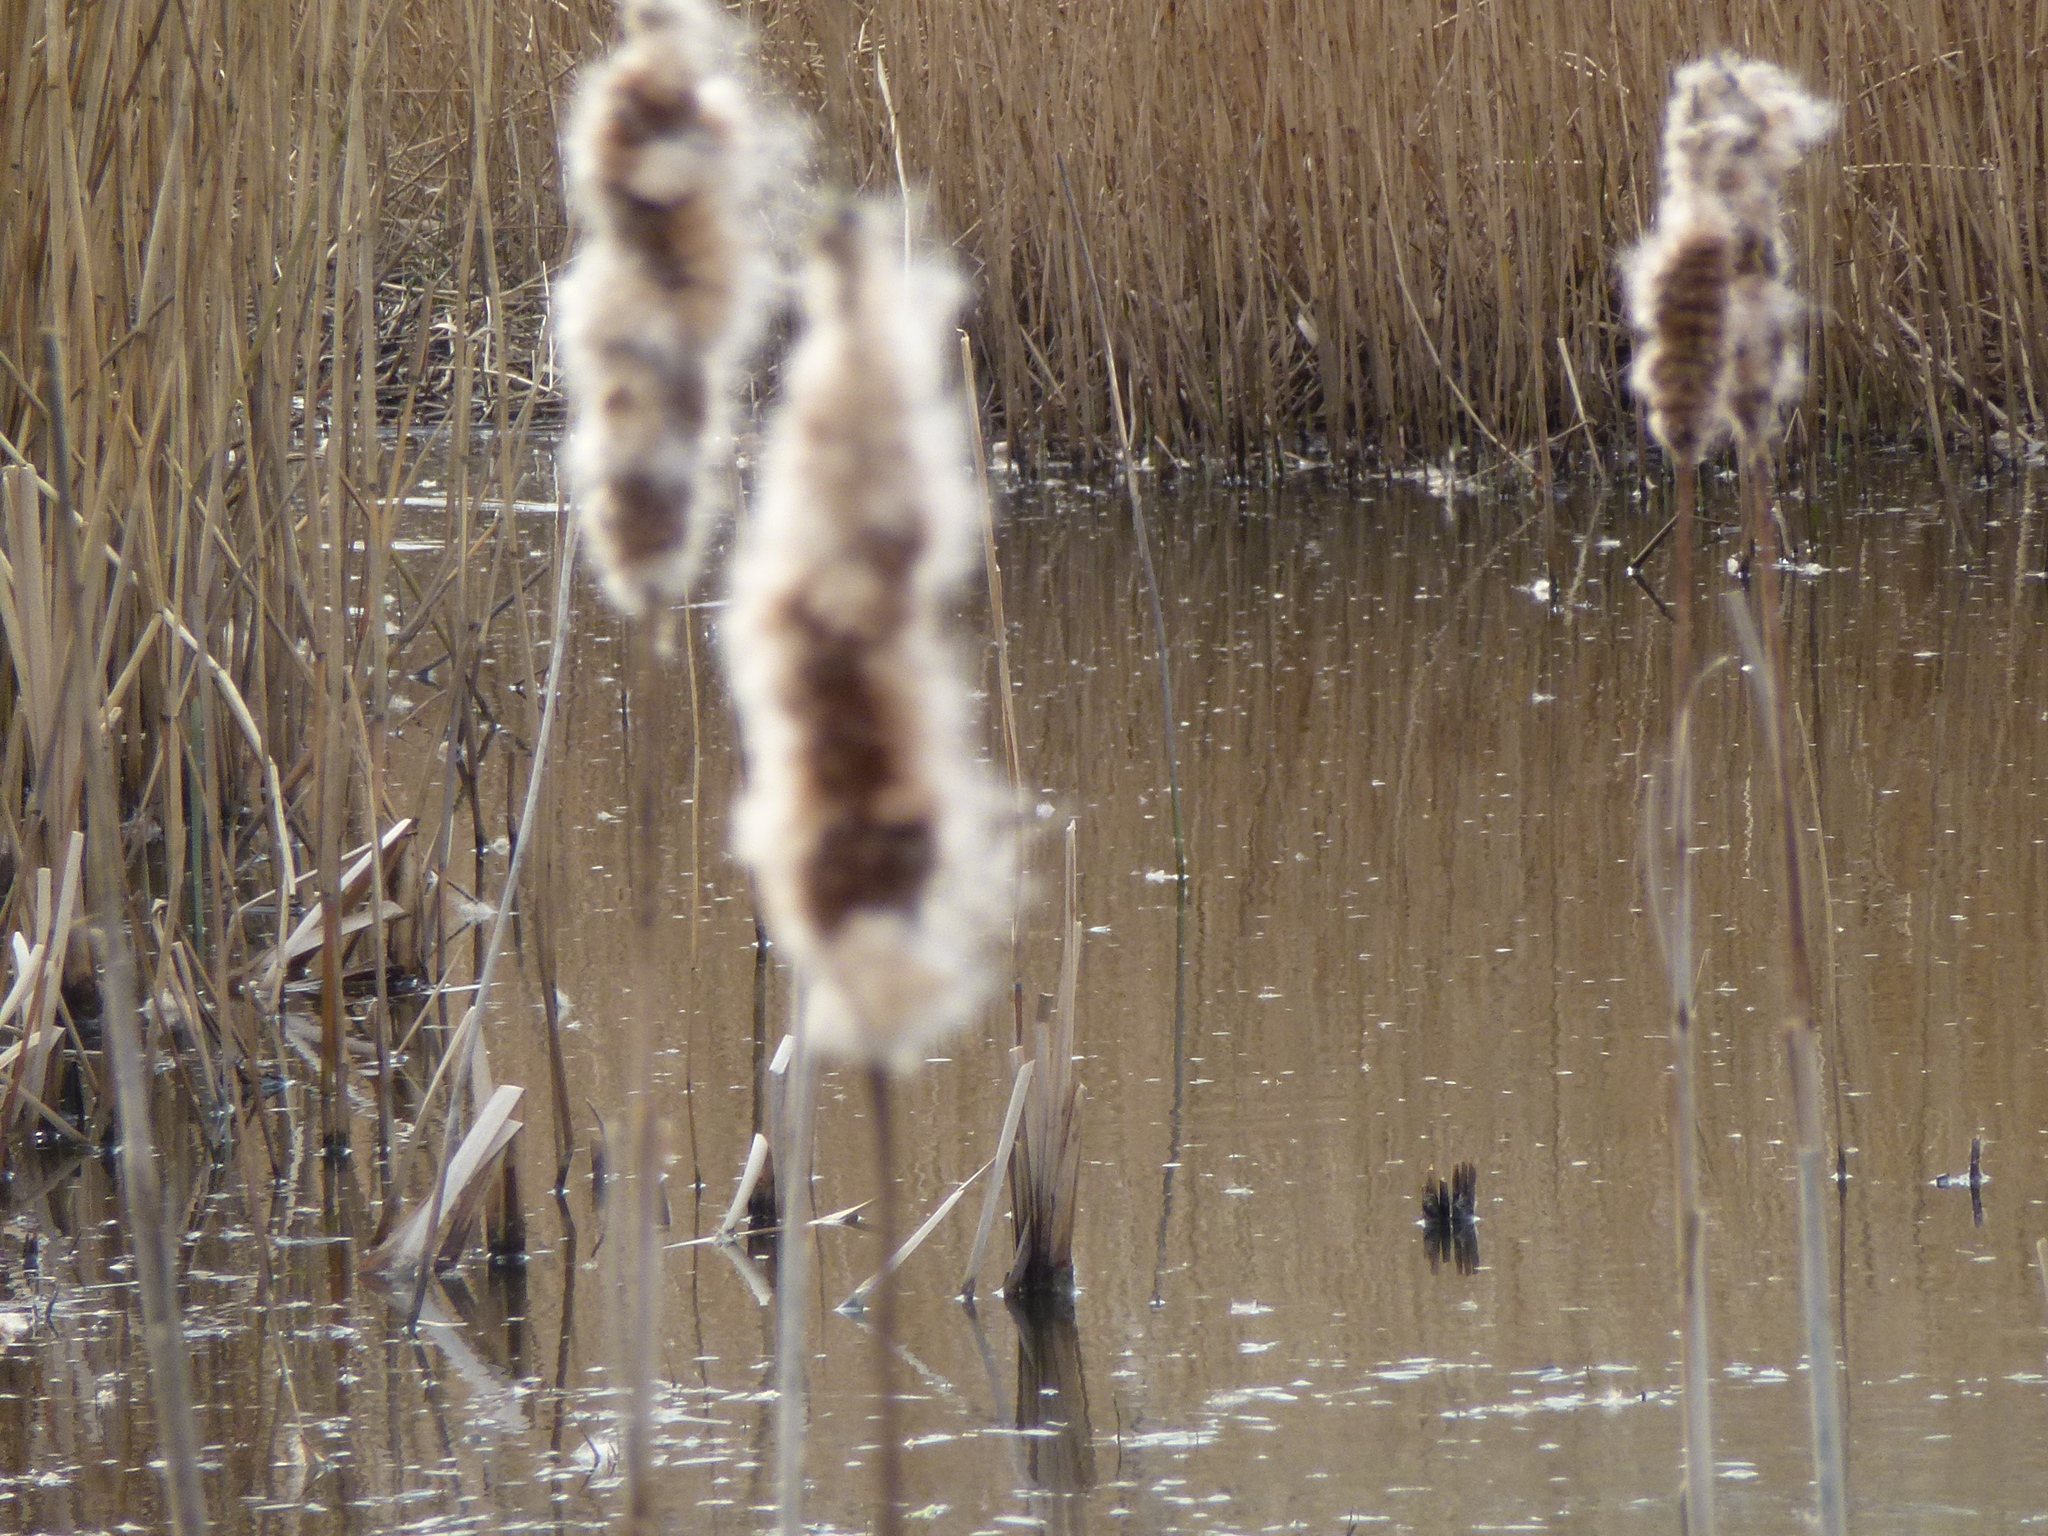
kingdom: Plantae
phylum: Tracheophyta
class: Liliopsida
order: Poales
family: Typhaceae
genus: Typha
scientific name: Typha latifolia
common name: Broadleaf cattail
